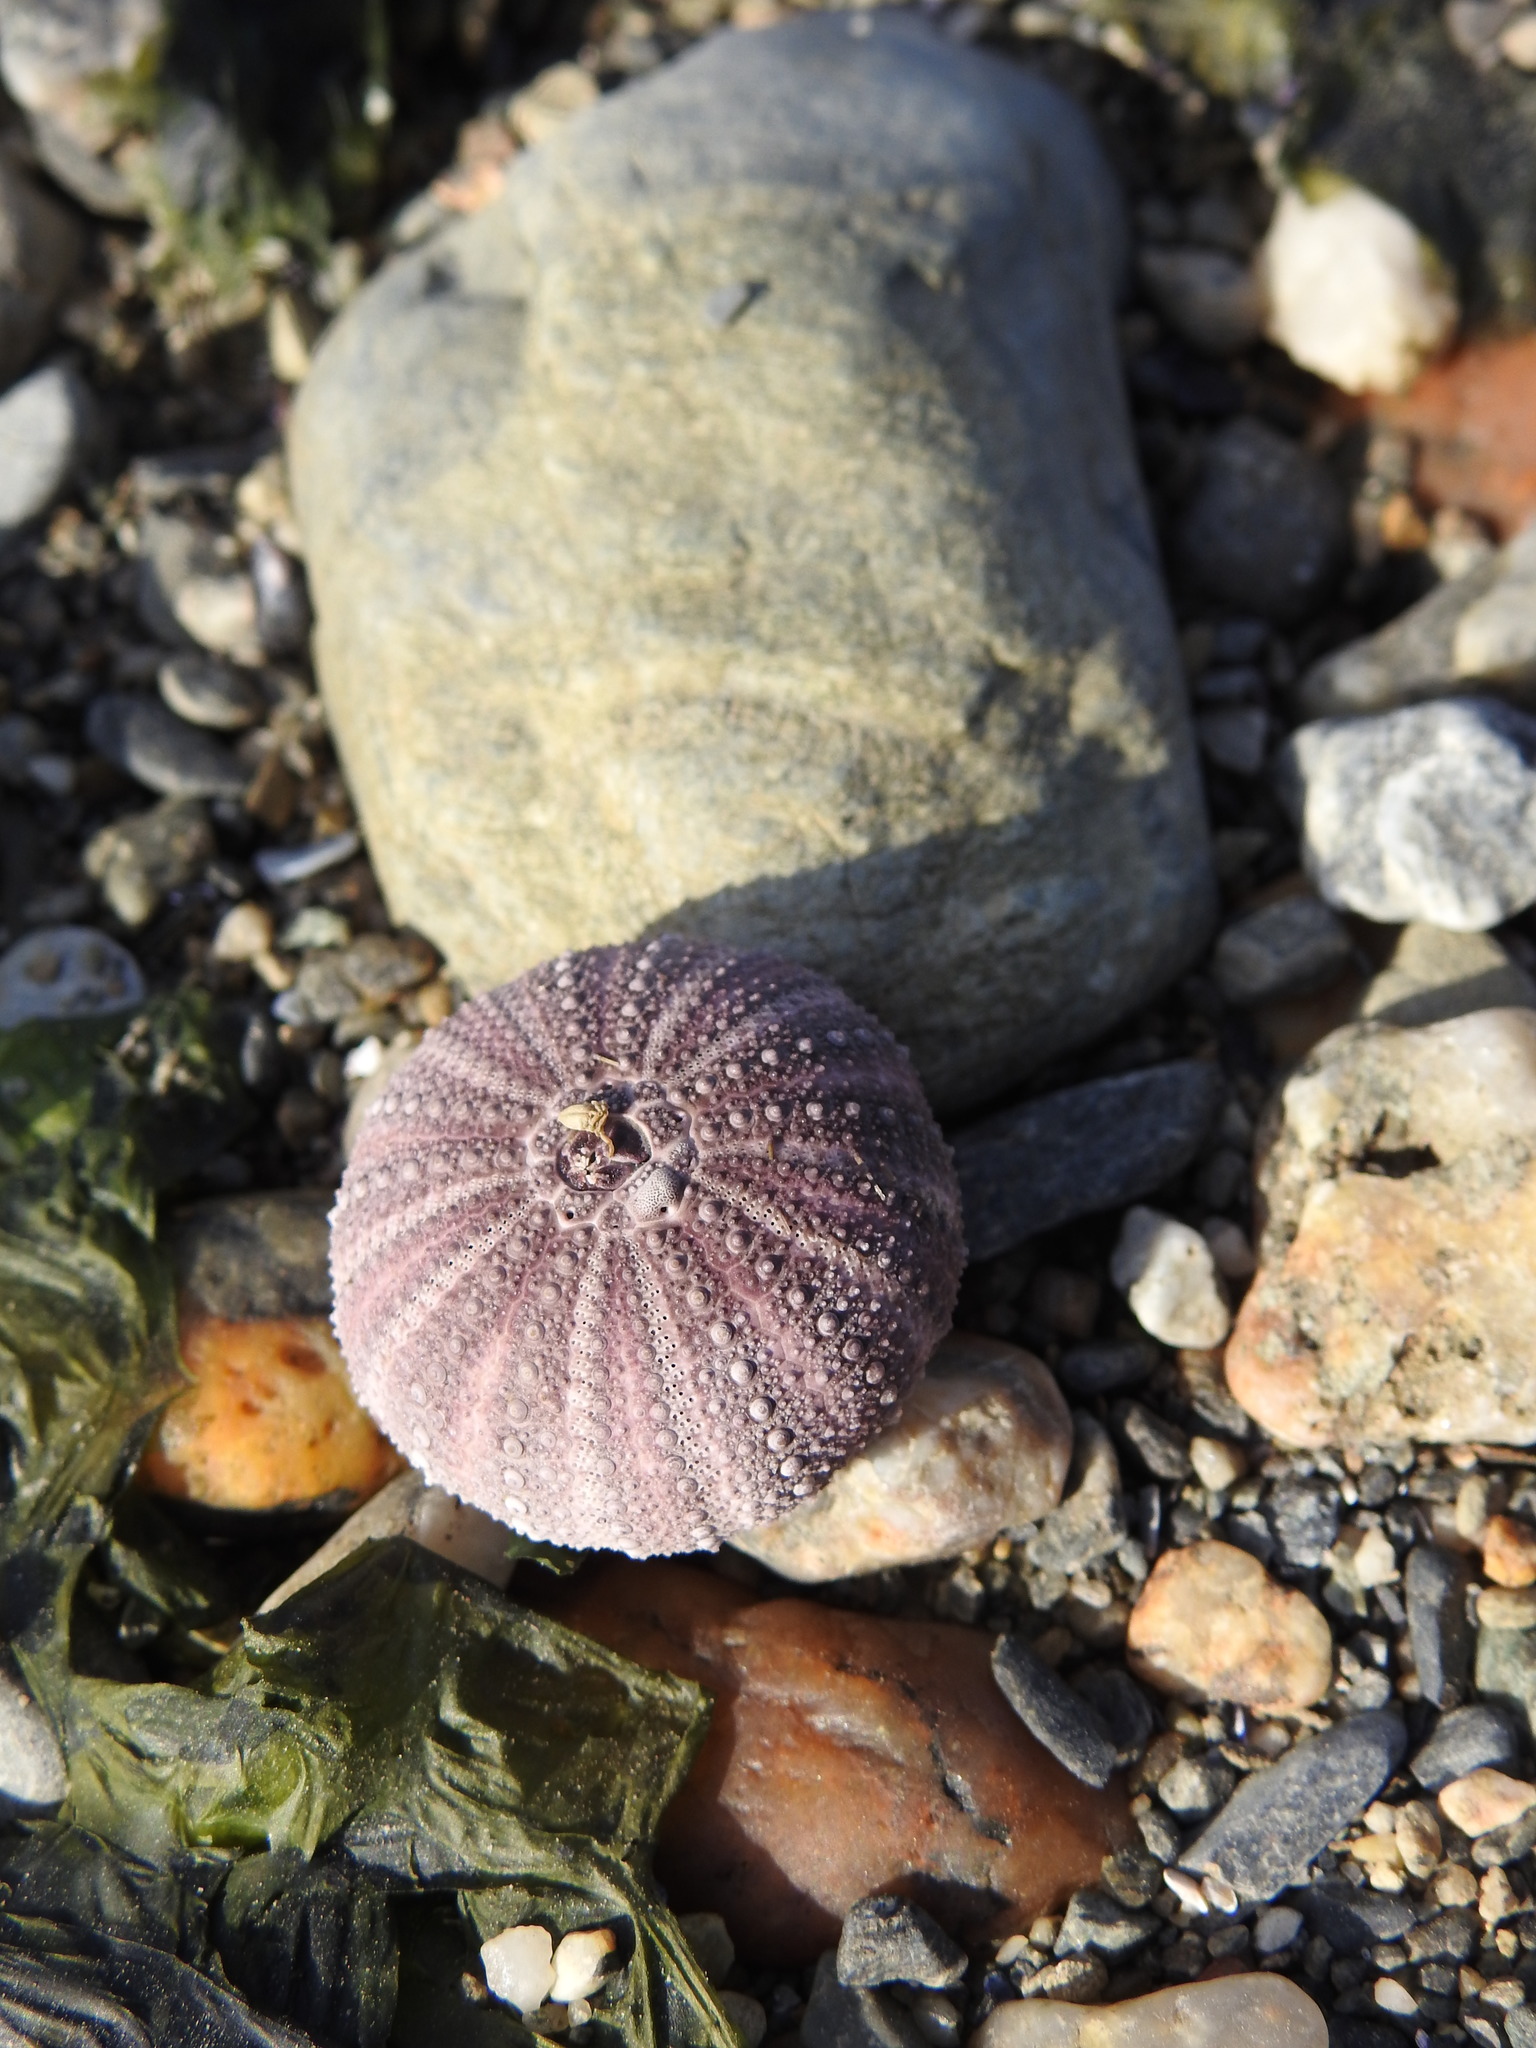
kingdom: Animalia
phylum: Echinodermata
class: Echinoidea
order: Camarodonta
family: Temnopleuridae
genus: Pseudechinus
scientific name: Pseudechinus magellanicus
